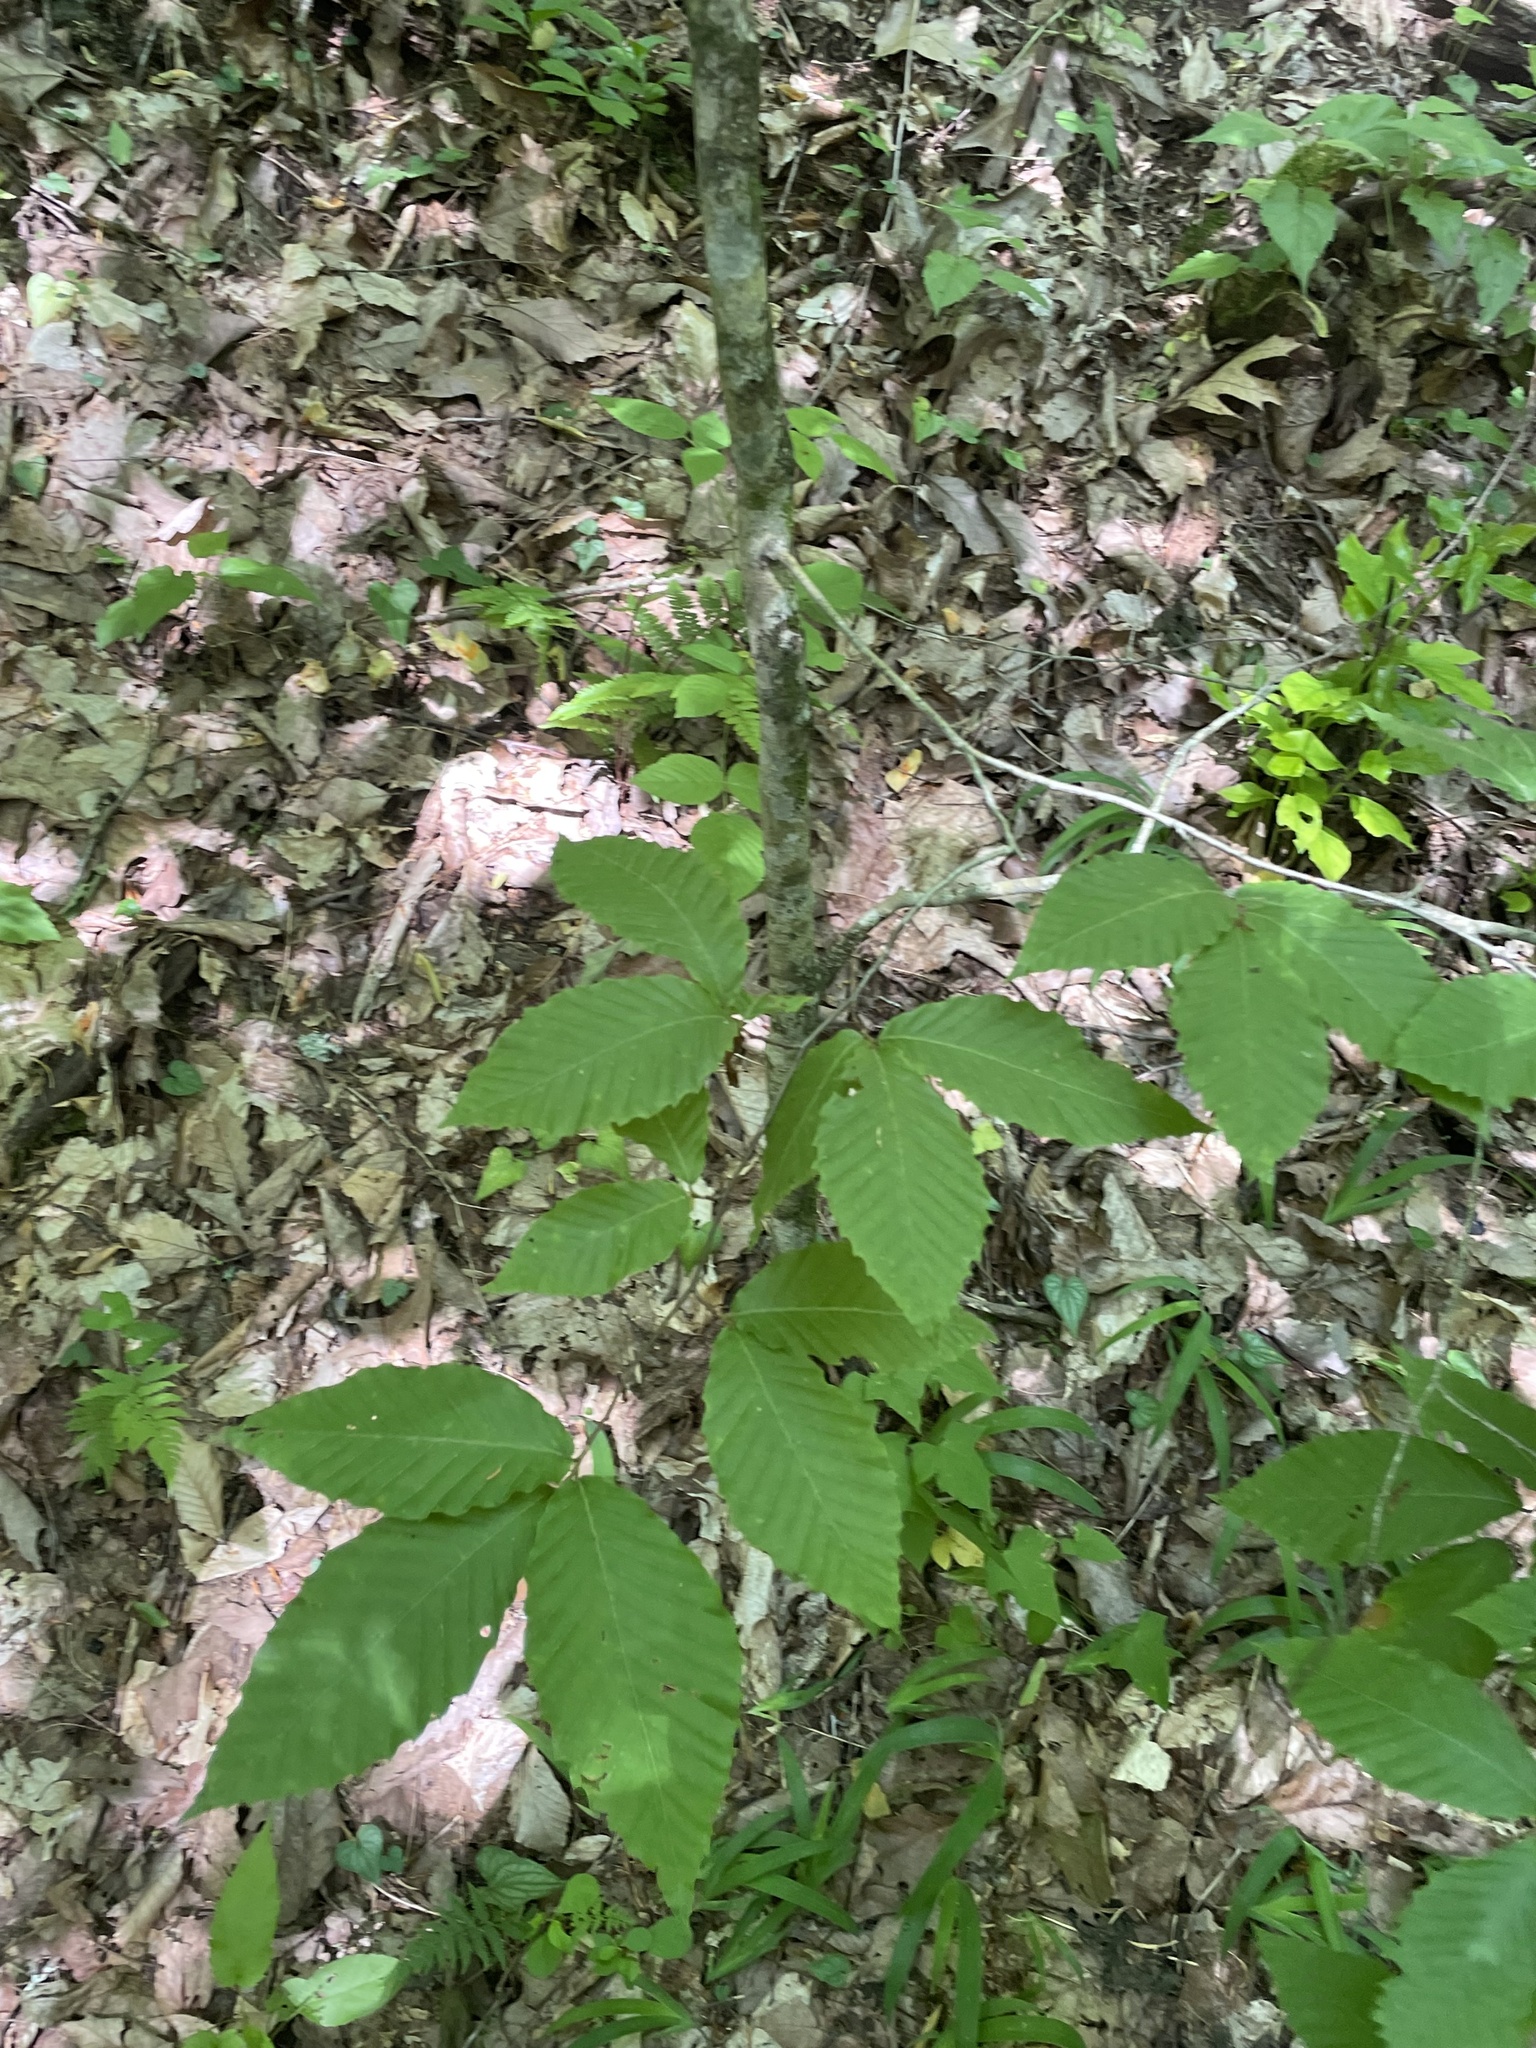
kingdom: Plantae
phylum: Tracheophyta
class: Magnoliopsida
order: Fagales
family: Fagaceae
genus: Fagus
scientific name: Fagus grandifolia
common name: American beech
